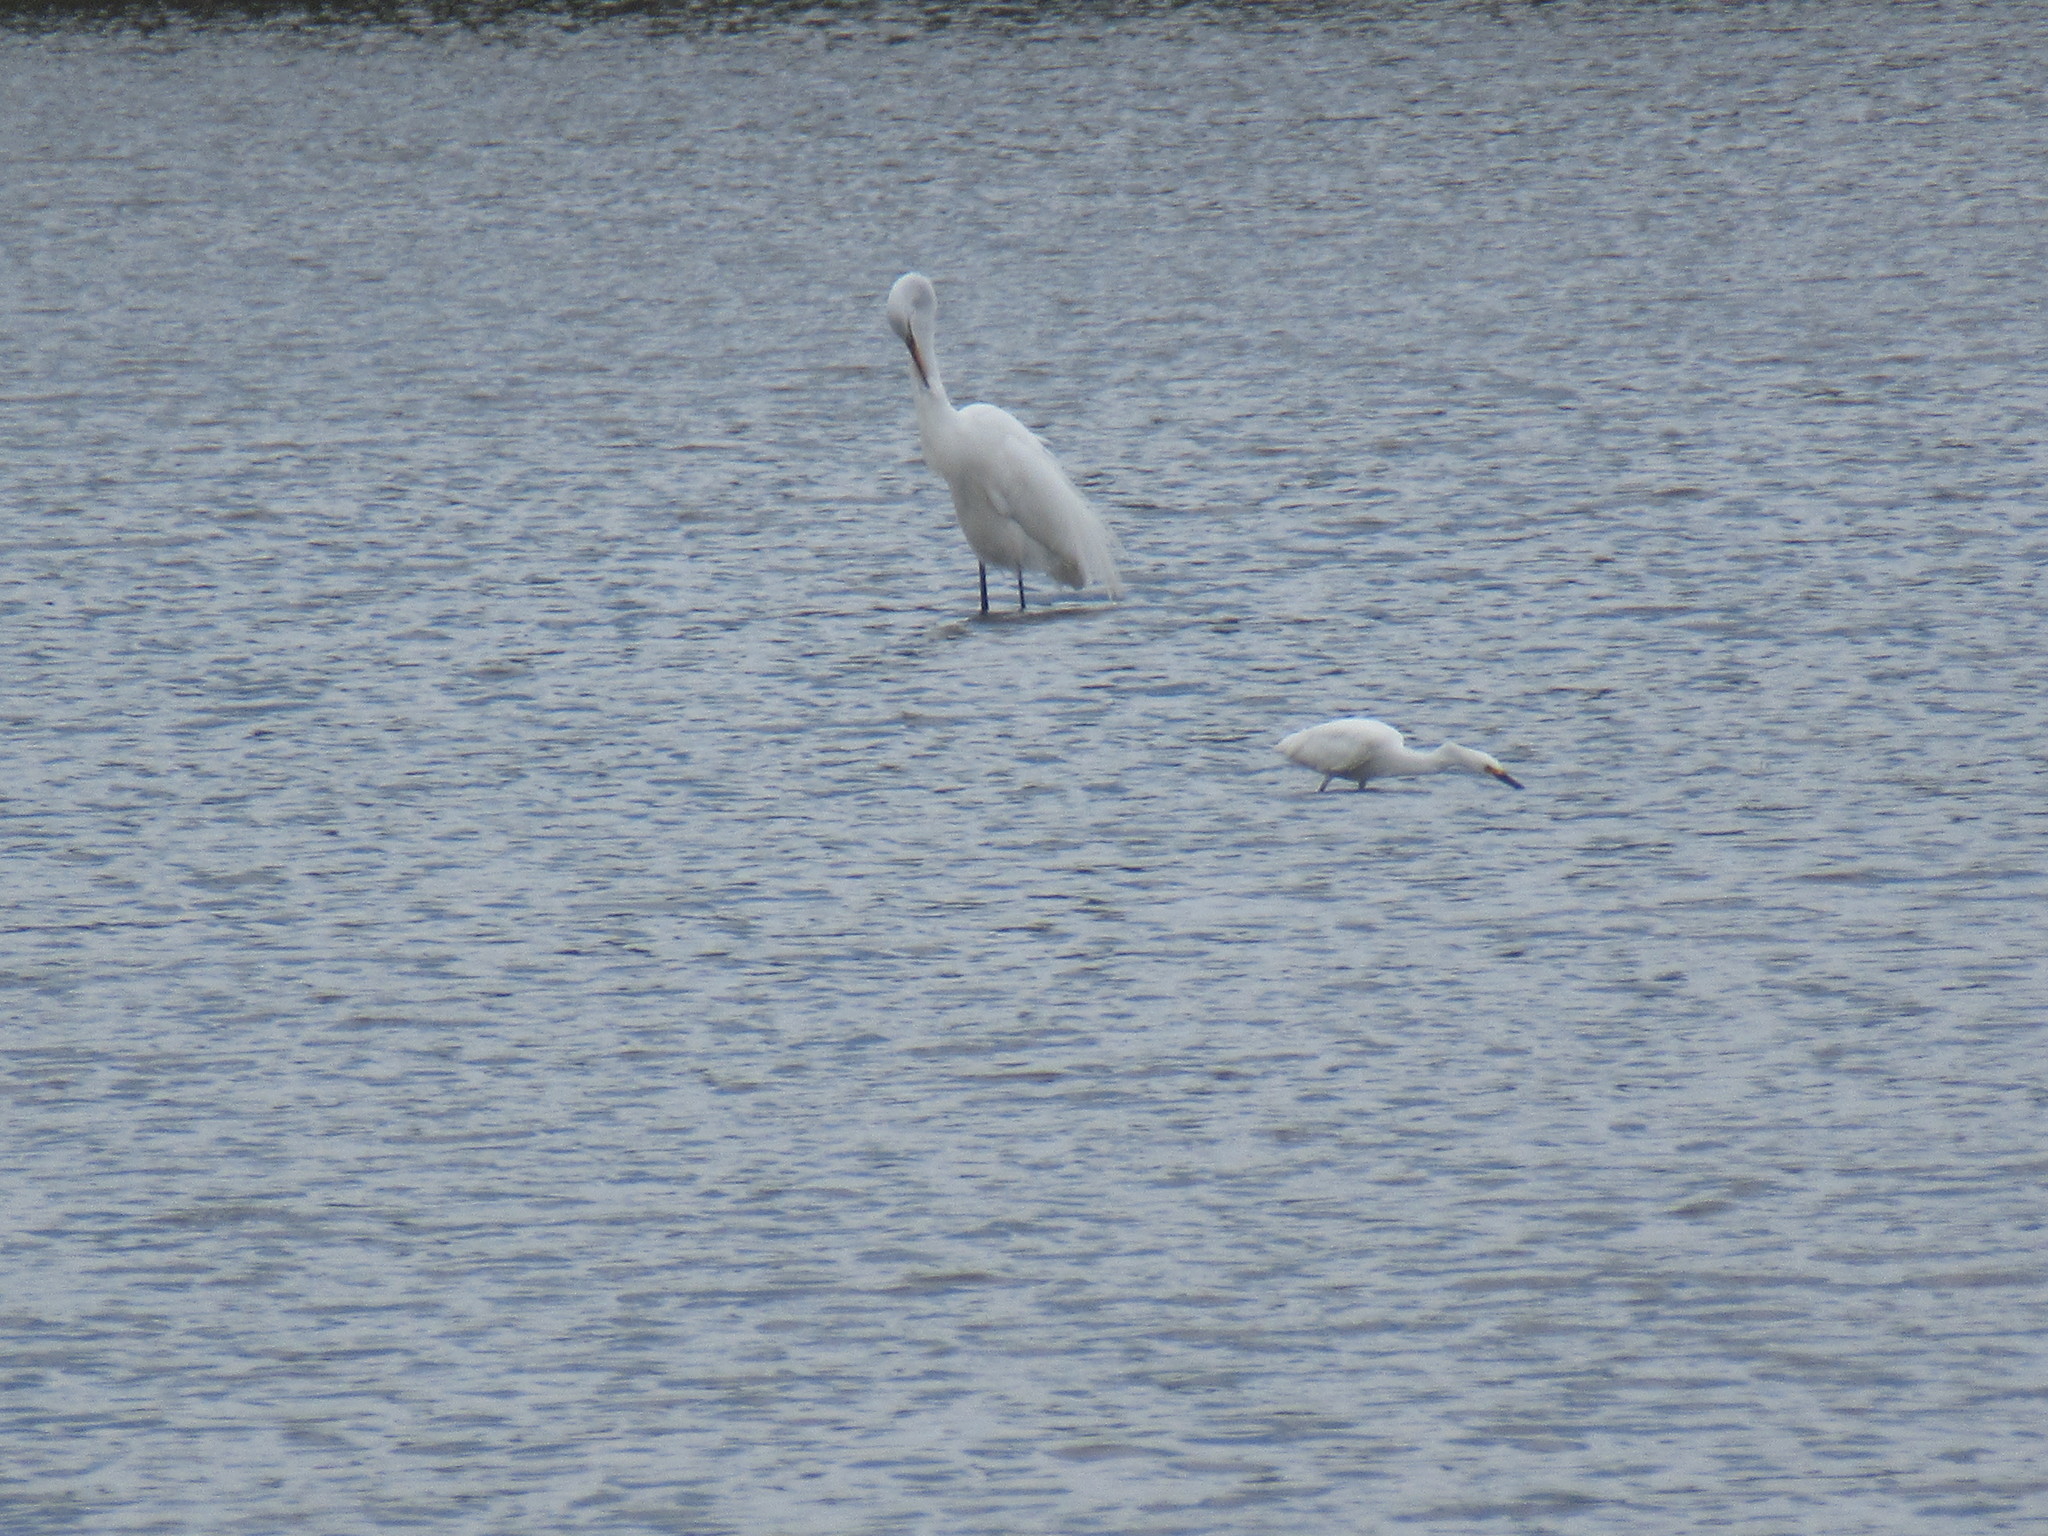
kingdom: Animalia
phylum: Chordata
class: Aves
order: Pelecaniformes
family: Ardeidae
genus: Ardea
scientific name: Ardea alba
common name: Great egret
